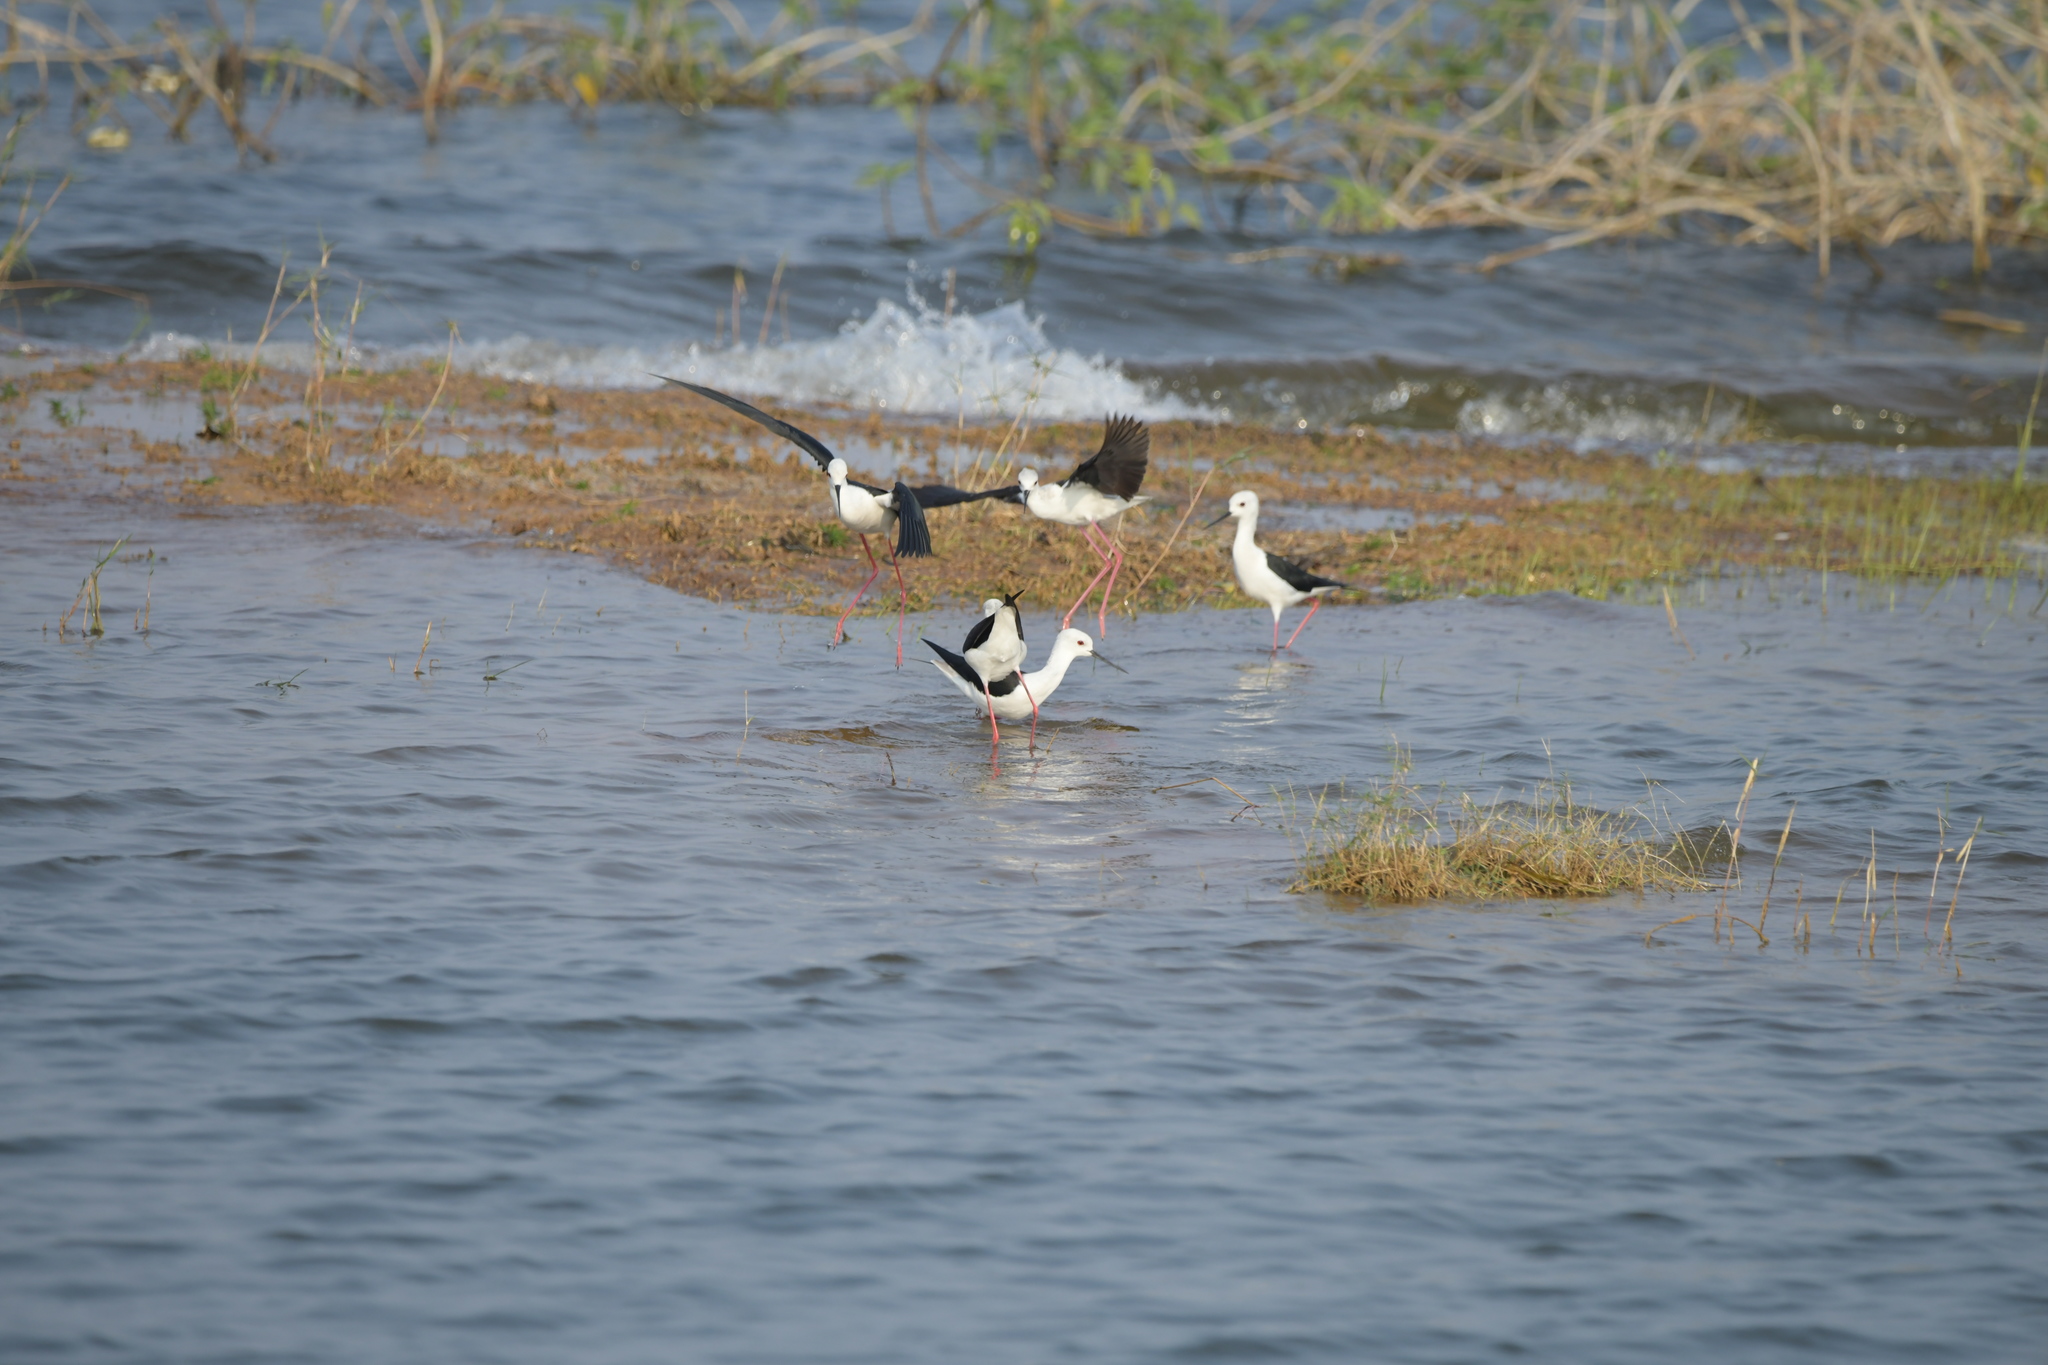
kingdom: Animalia
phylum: Chordata
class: Aves
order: Charadriiformes
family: Recurvirostridae
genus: Himantopus
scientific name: Himantopus himantopus
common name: Black-winged stilt
